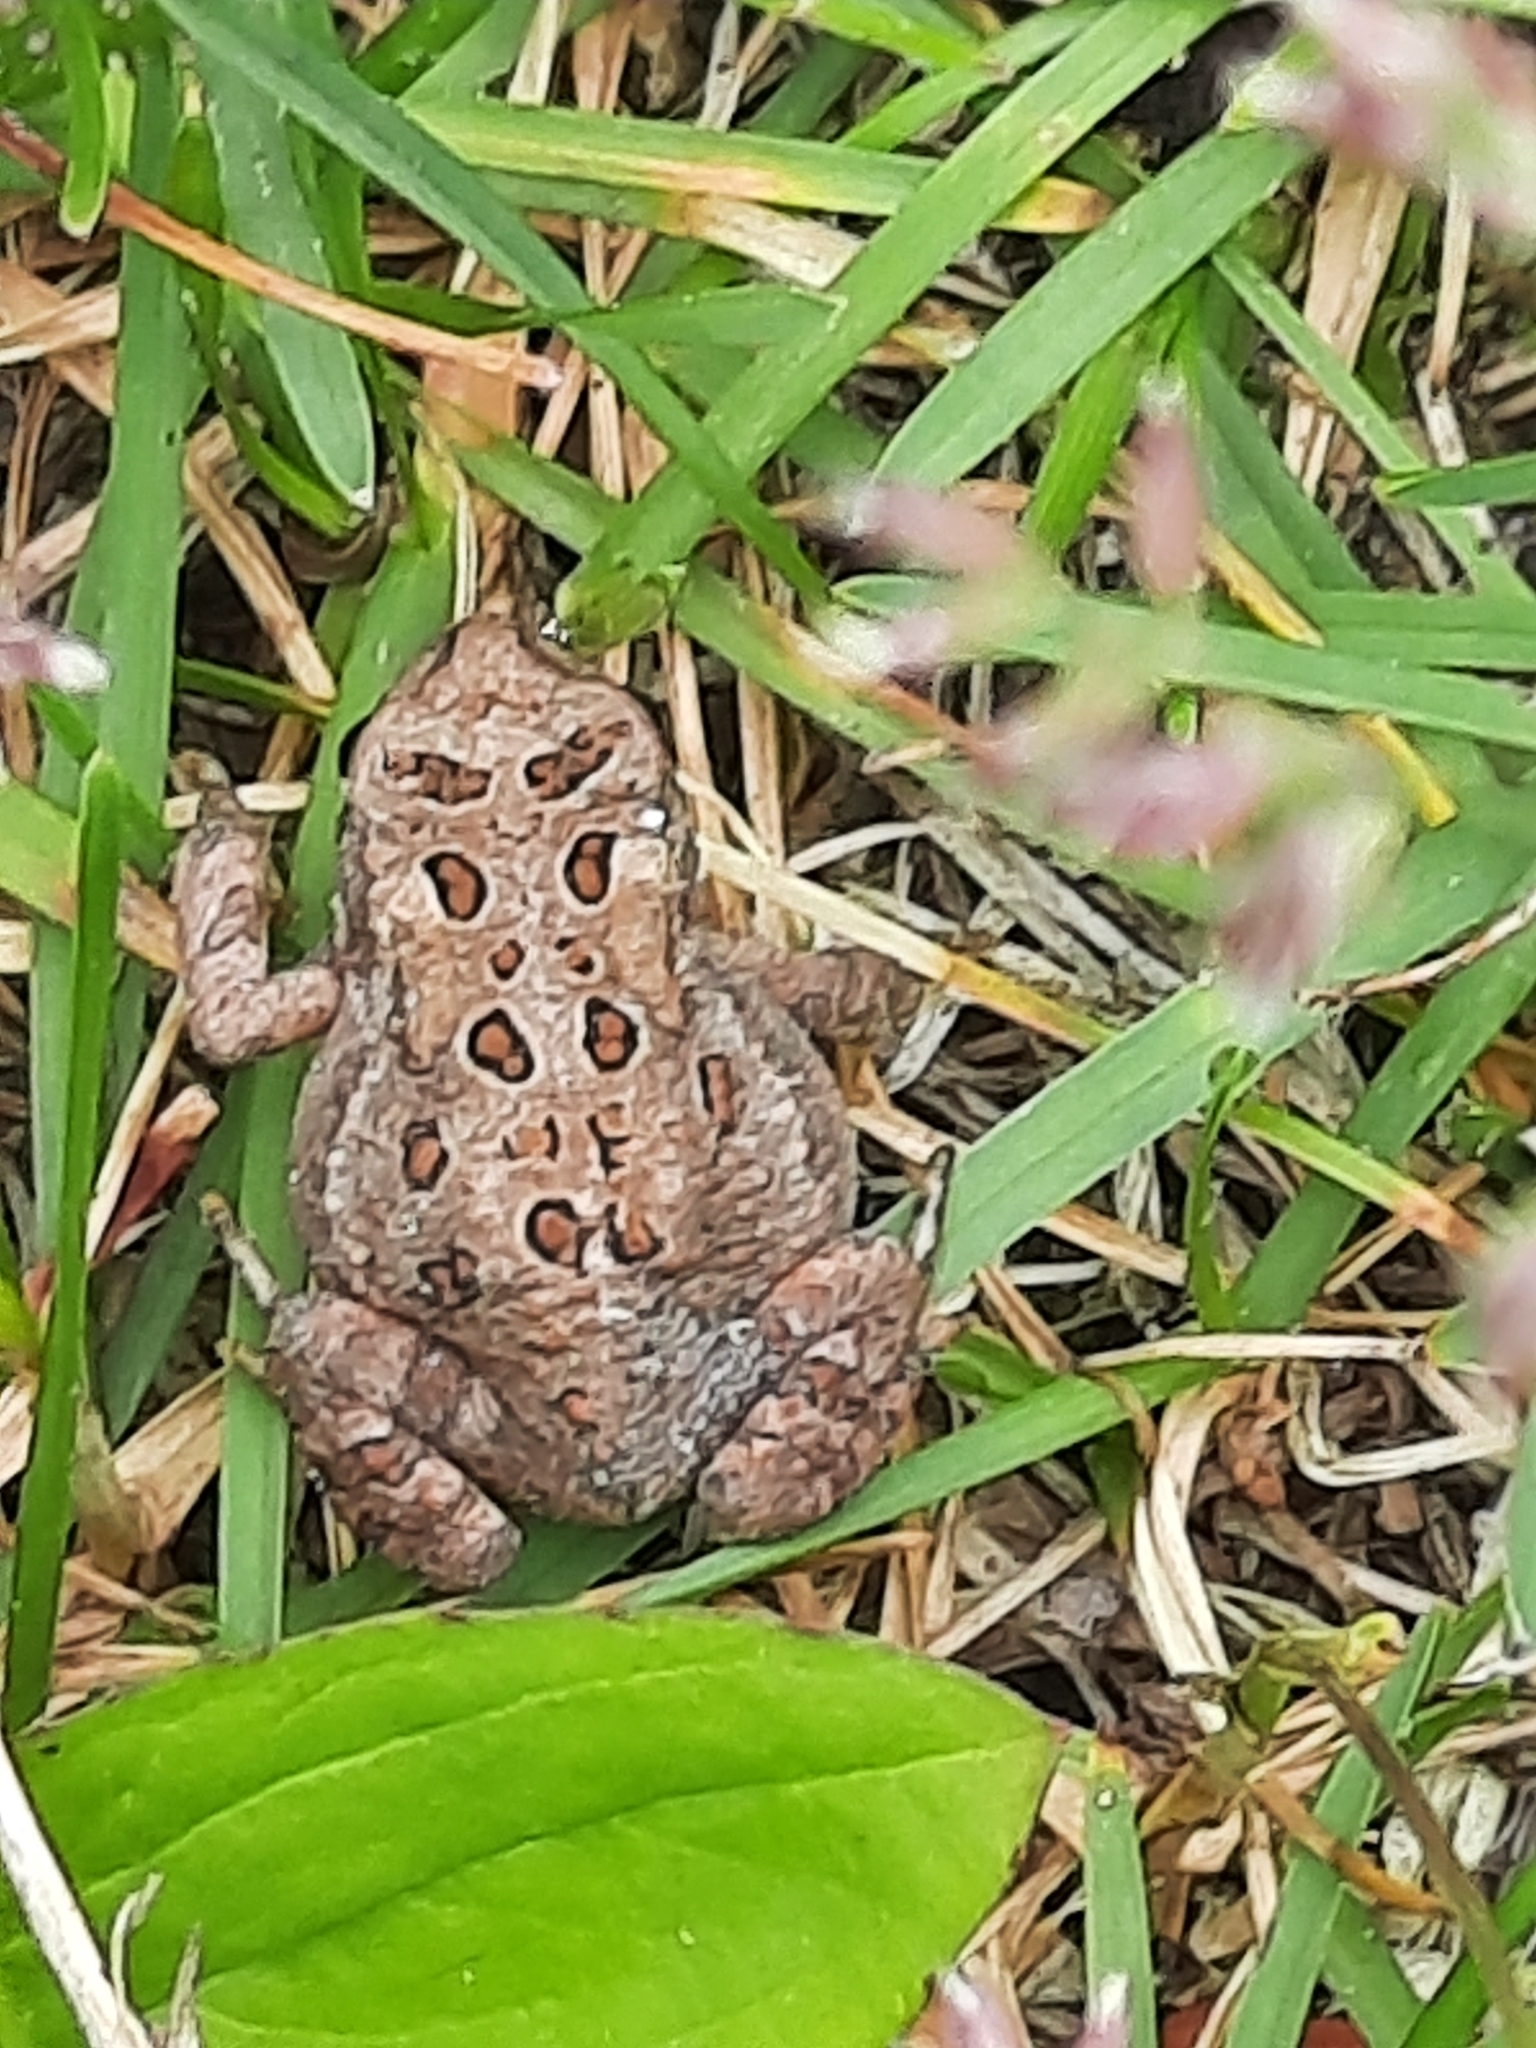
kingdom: Animalia
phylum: Chordata
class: Amphibia
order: Anura
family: Bufonidae
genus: Anaxyrus
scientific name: Anaxyrus americanus
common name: American toad
